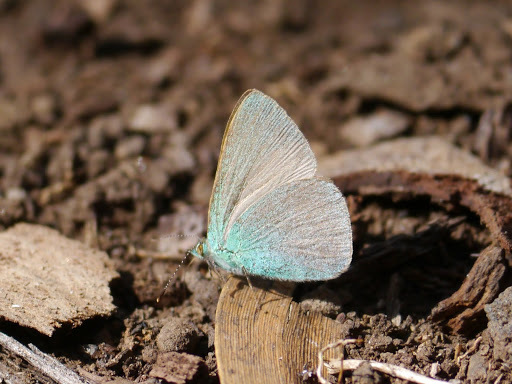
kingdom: Animalia
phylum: Arthropoda
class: Insecta
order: Lepidoptera
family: Lycaenidae
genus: Udara
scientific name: Udara blackburni
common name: Blackburn's blue
